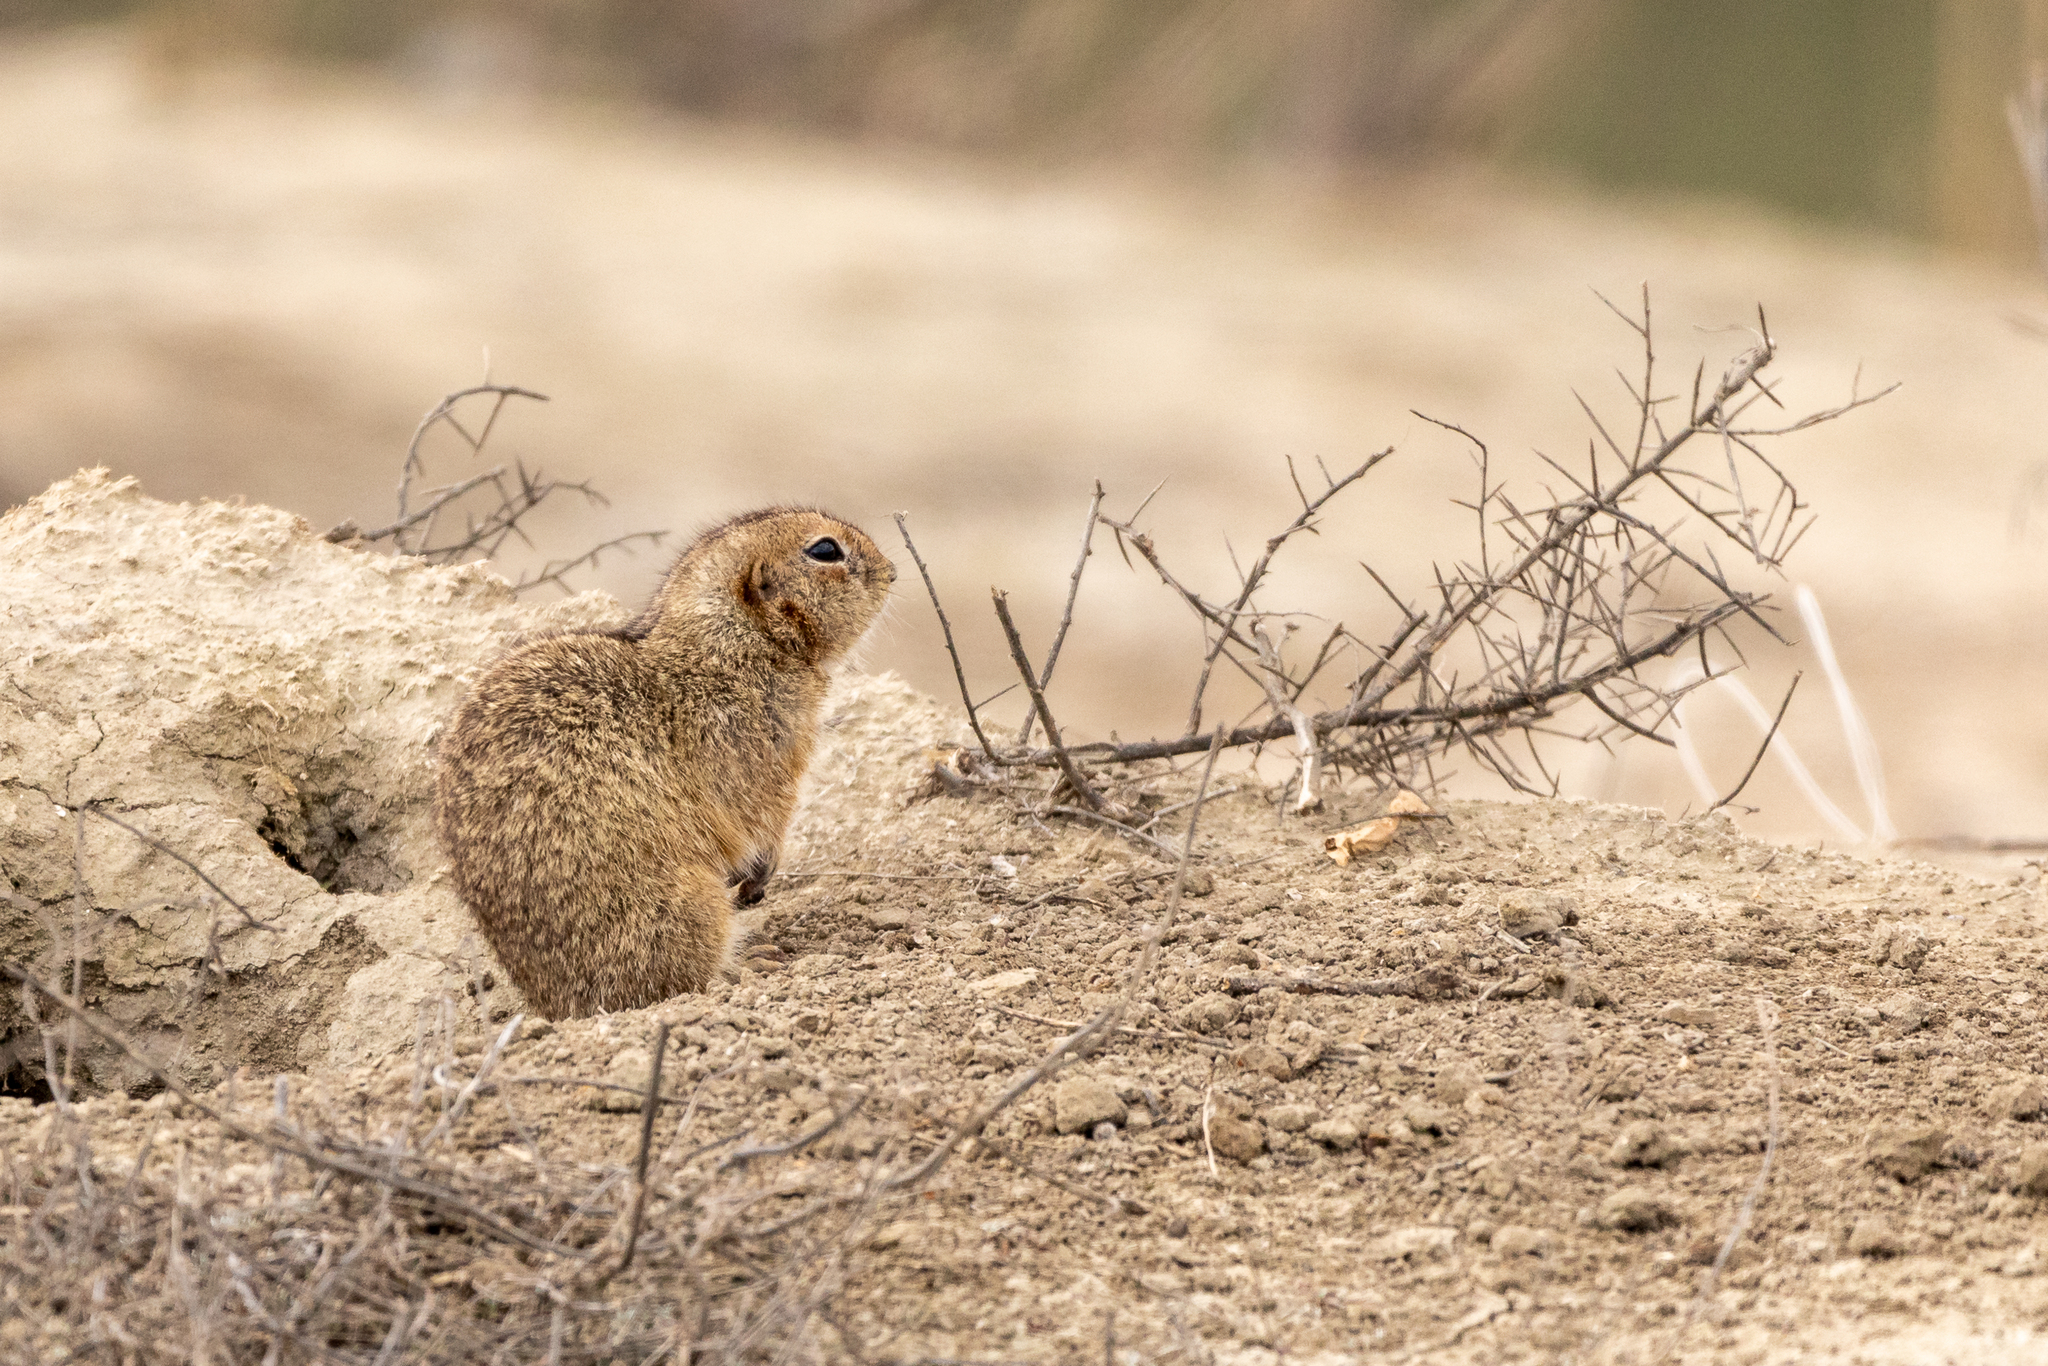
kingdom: Animalia
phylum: Chordata
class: Mammalia
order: Rodentia
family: Sciuridae
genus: Spermophilus
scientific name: Spermophilus pygmaeus
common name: Little ground squirrel
